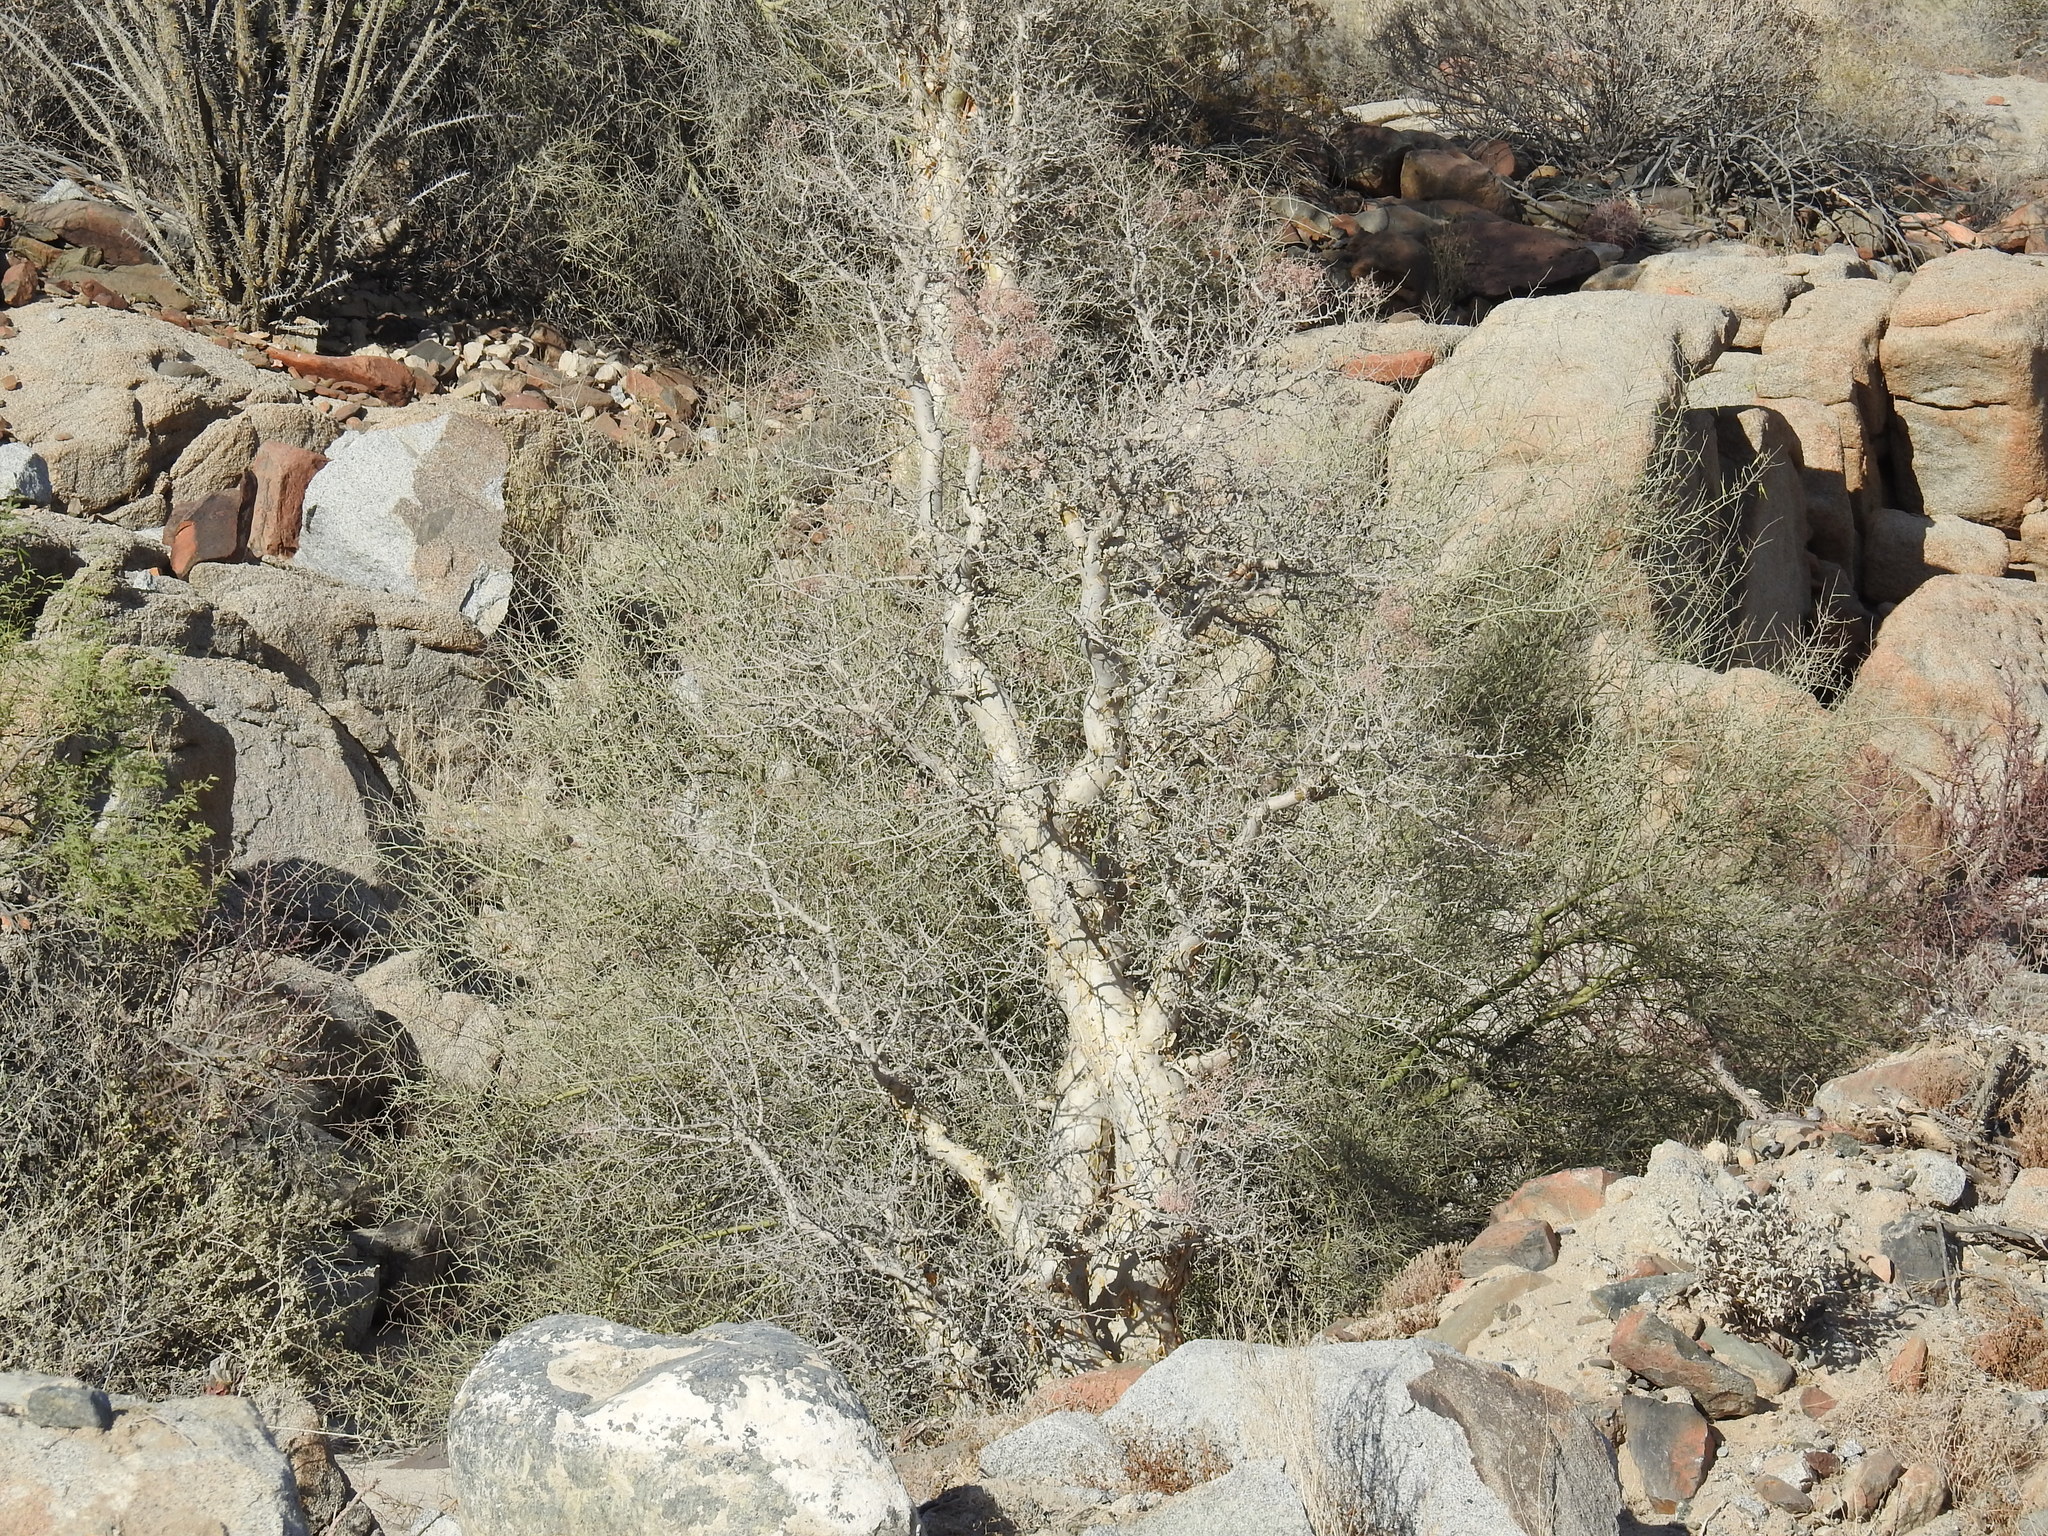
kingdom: Plantae
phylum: Tracheophyta
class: Magnoliopsida
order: Sapindales
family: Anacardiaceae
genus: Pachycormus
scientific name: Pachycormus discolor
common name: Succulent elephant trees
